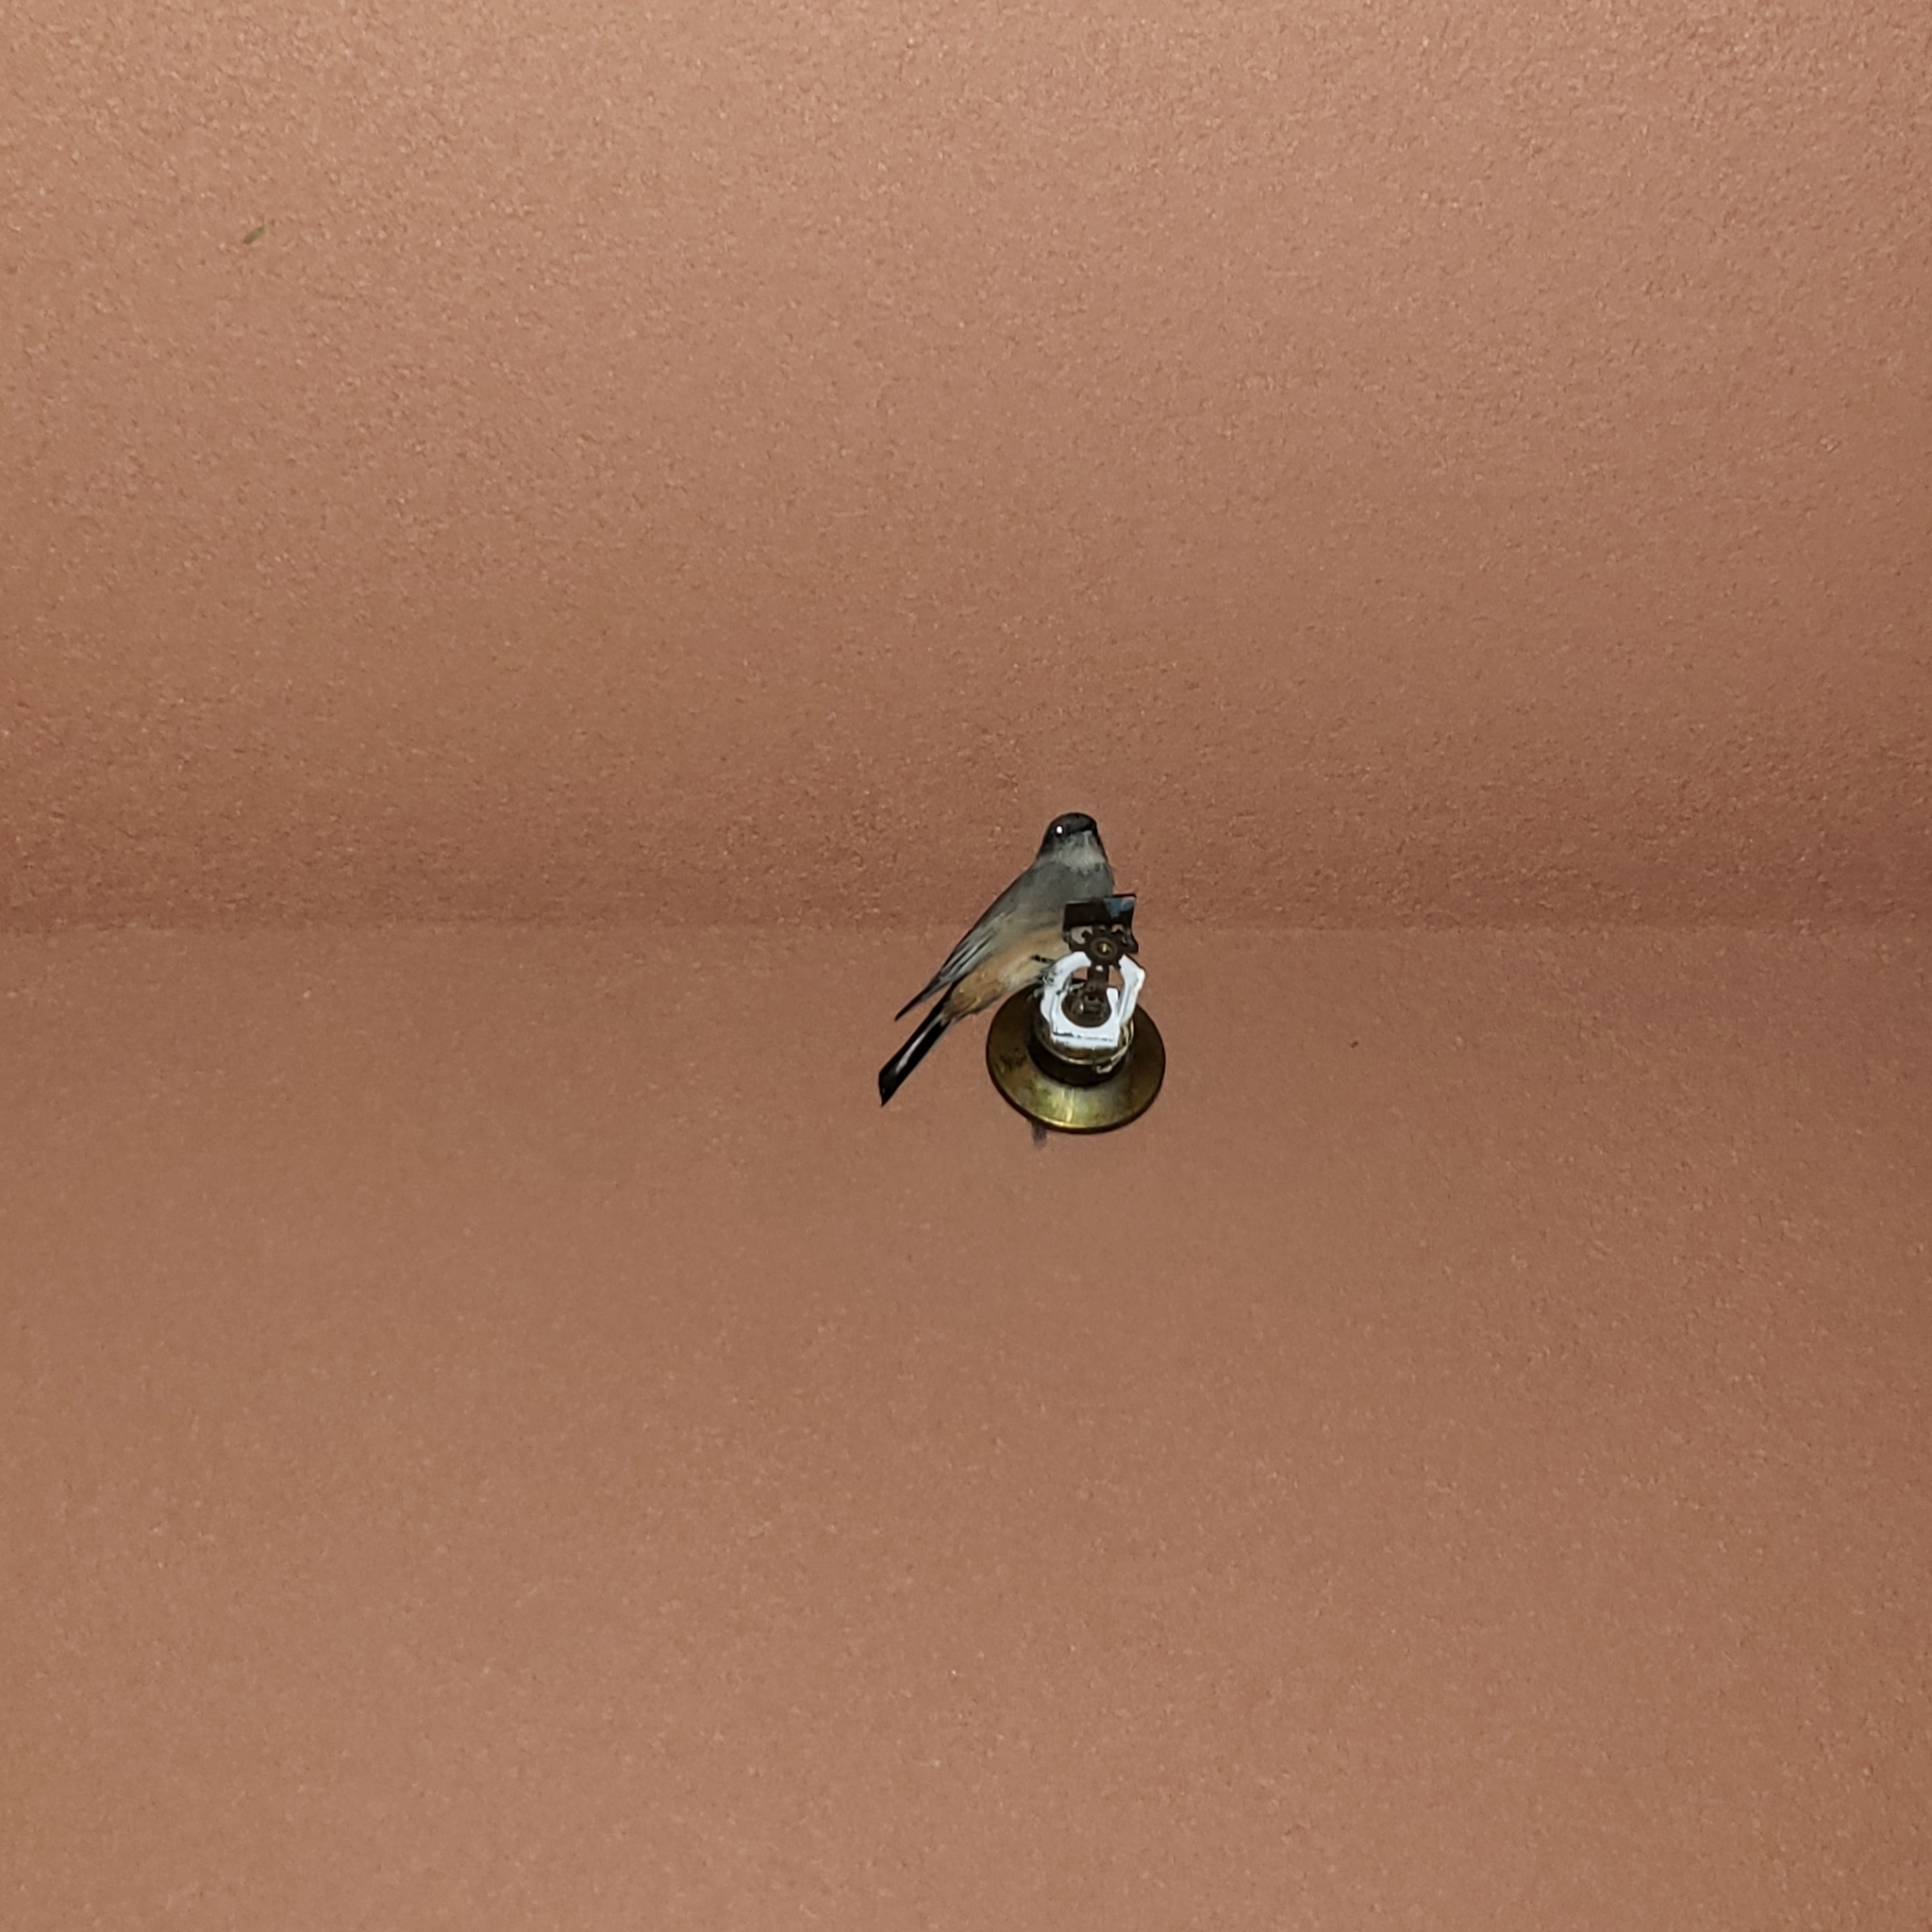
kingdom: Animalia
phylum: Chordata
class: Aves
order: Passeriformes
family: Tyrannidae
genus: Sayornis
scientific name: Sayornis saya
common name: Say's phoebe
